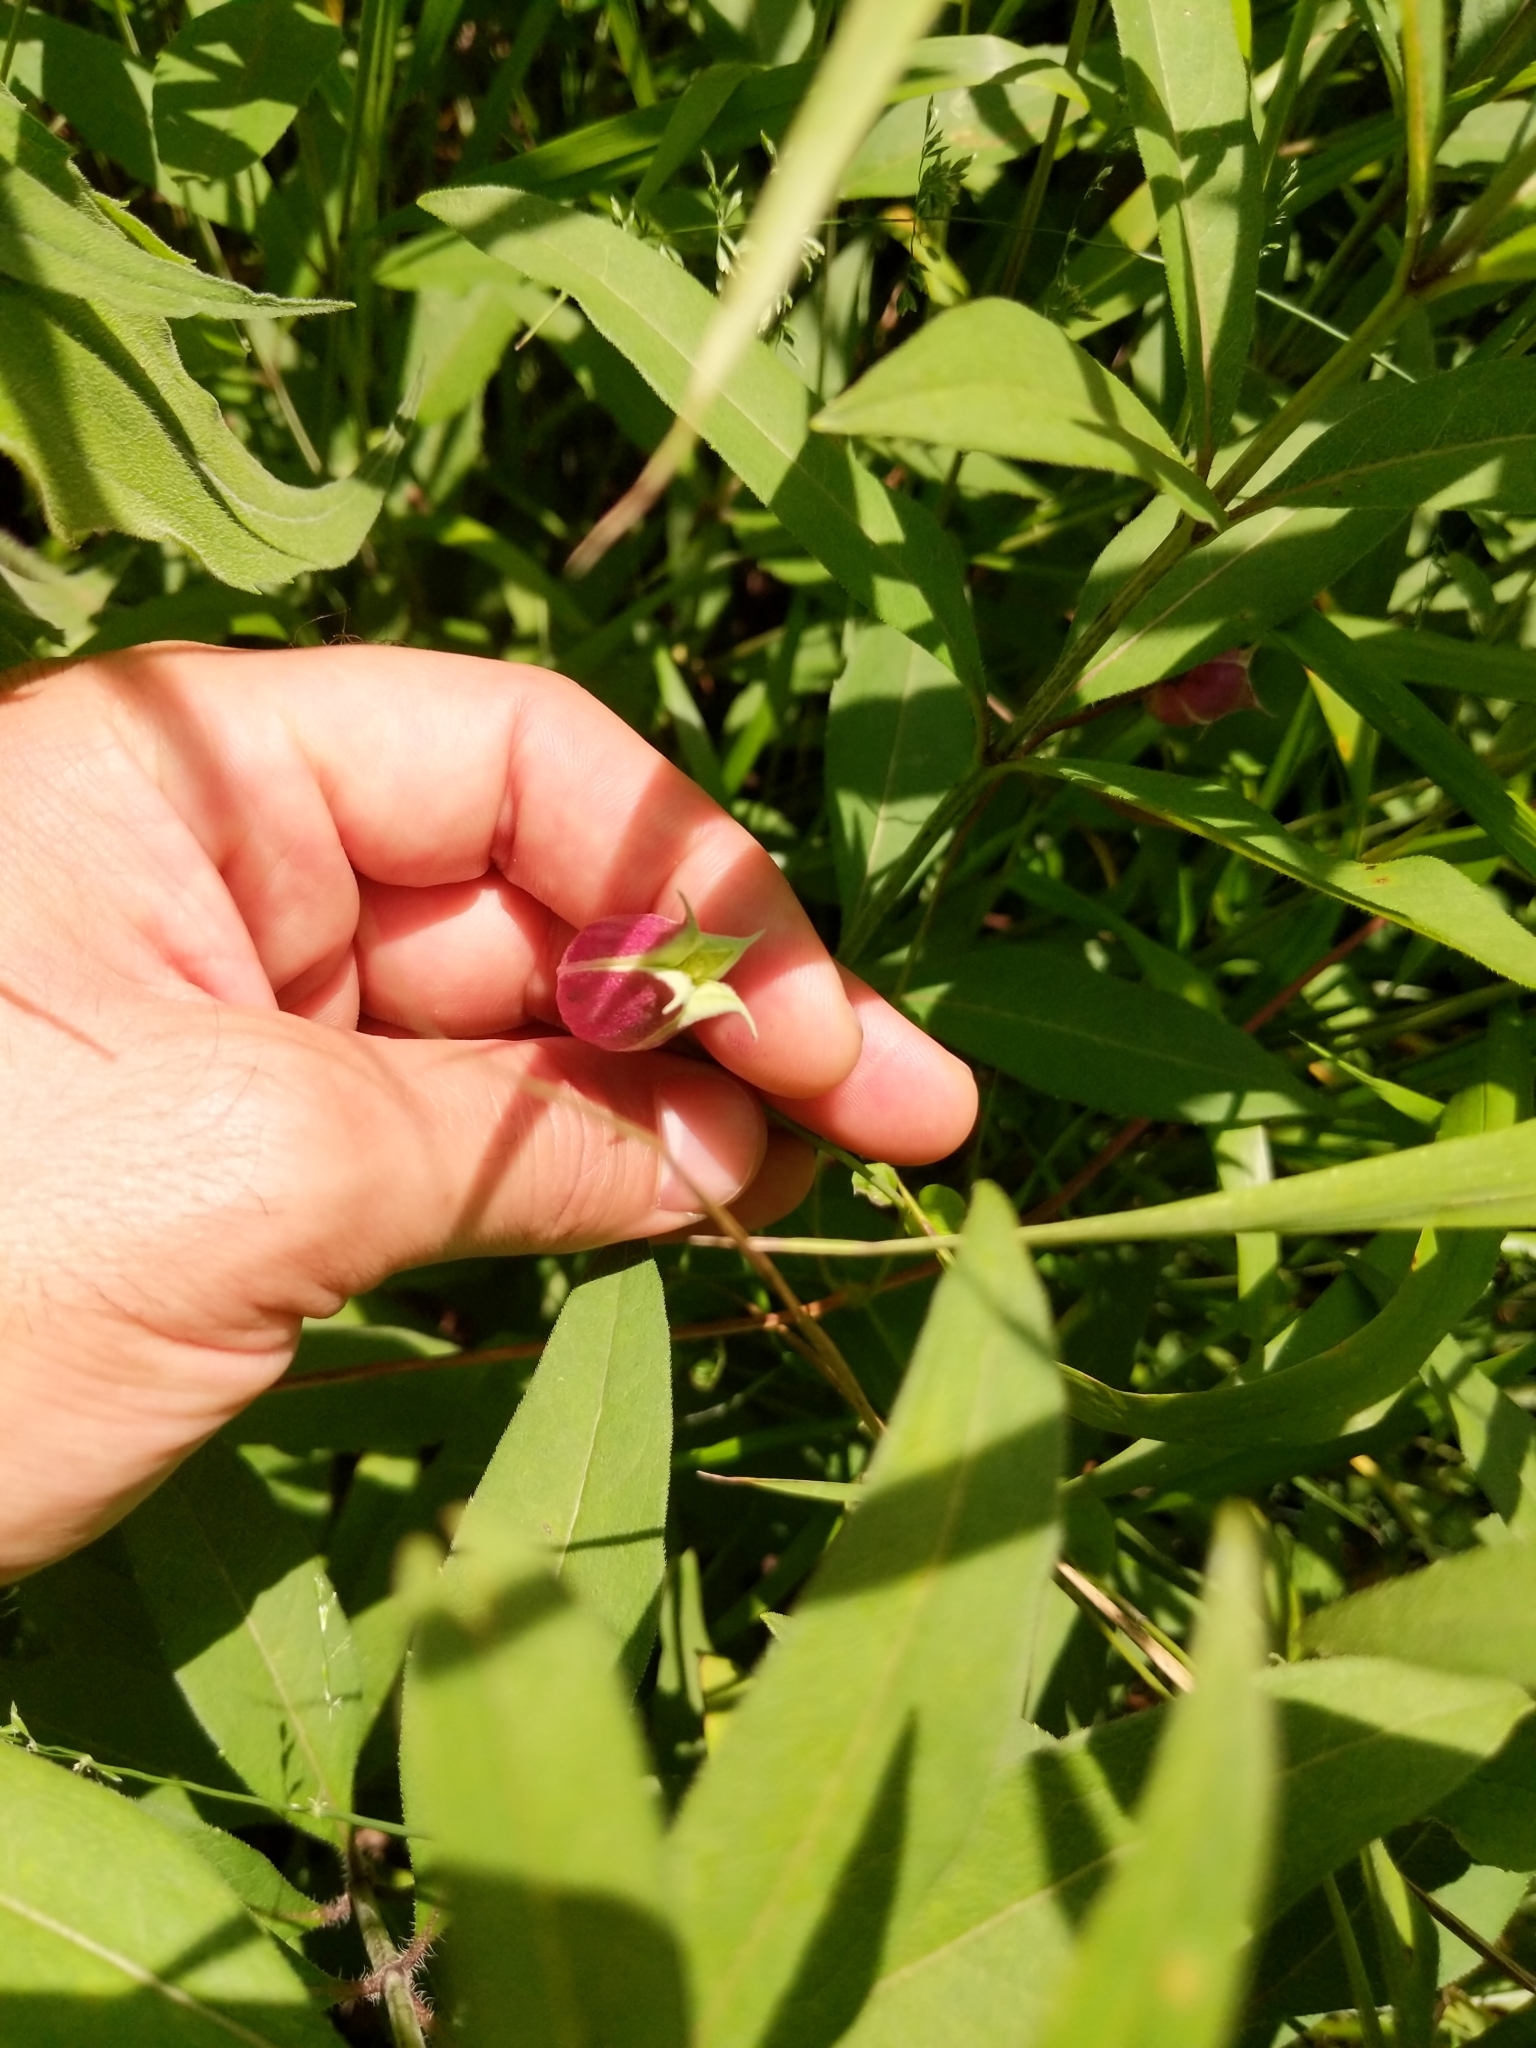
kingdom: Plantae
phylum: Tracheophyta
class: Magnoliopsida
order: Ranunculales
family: Ranunculaceae
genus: Clematis
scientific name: Clematis viorna
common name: Leather-flower
